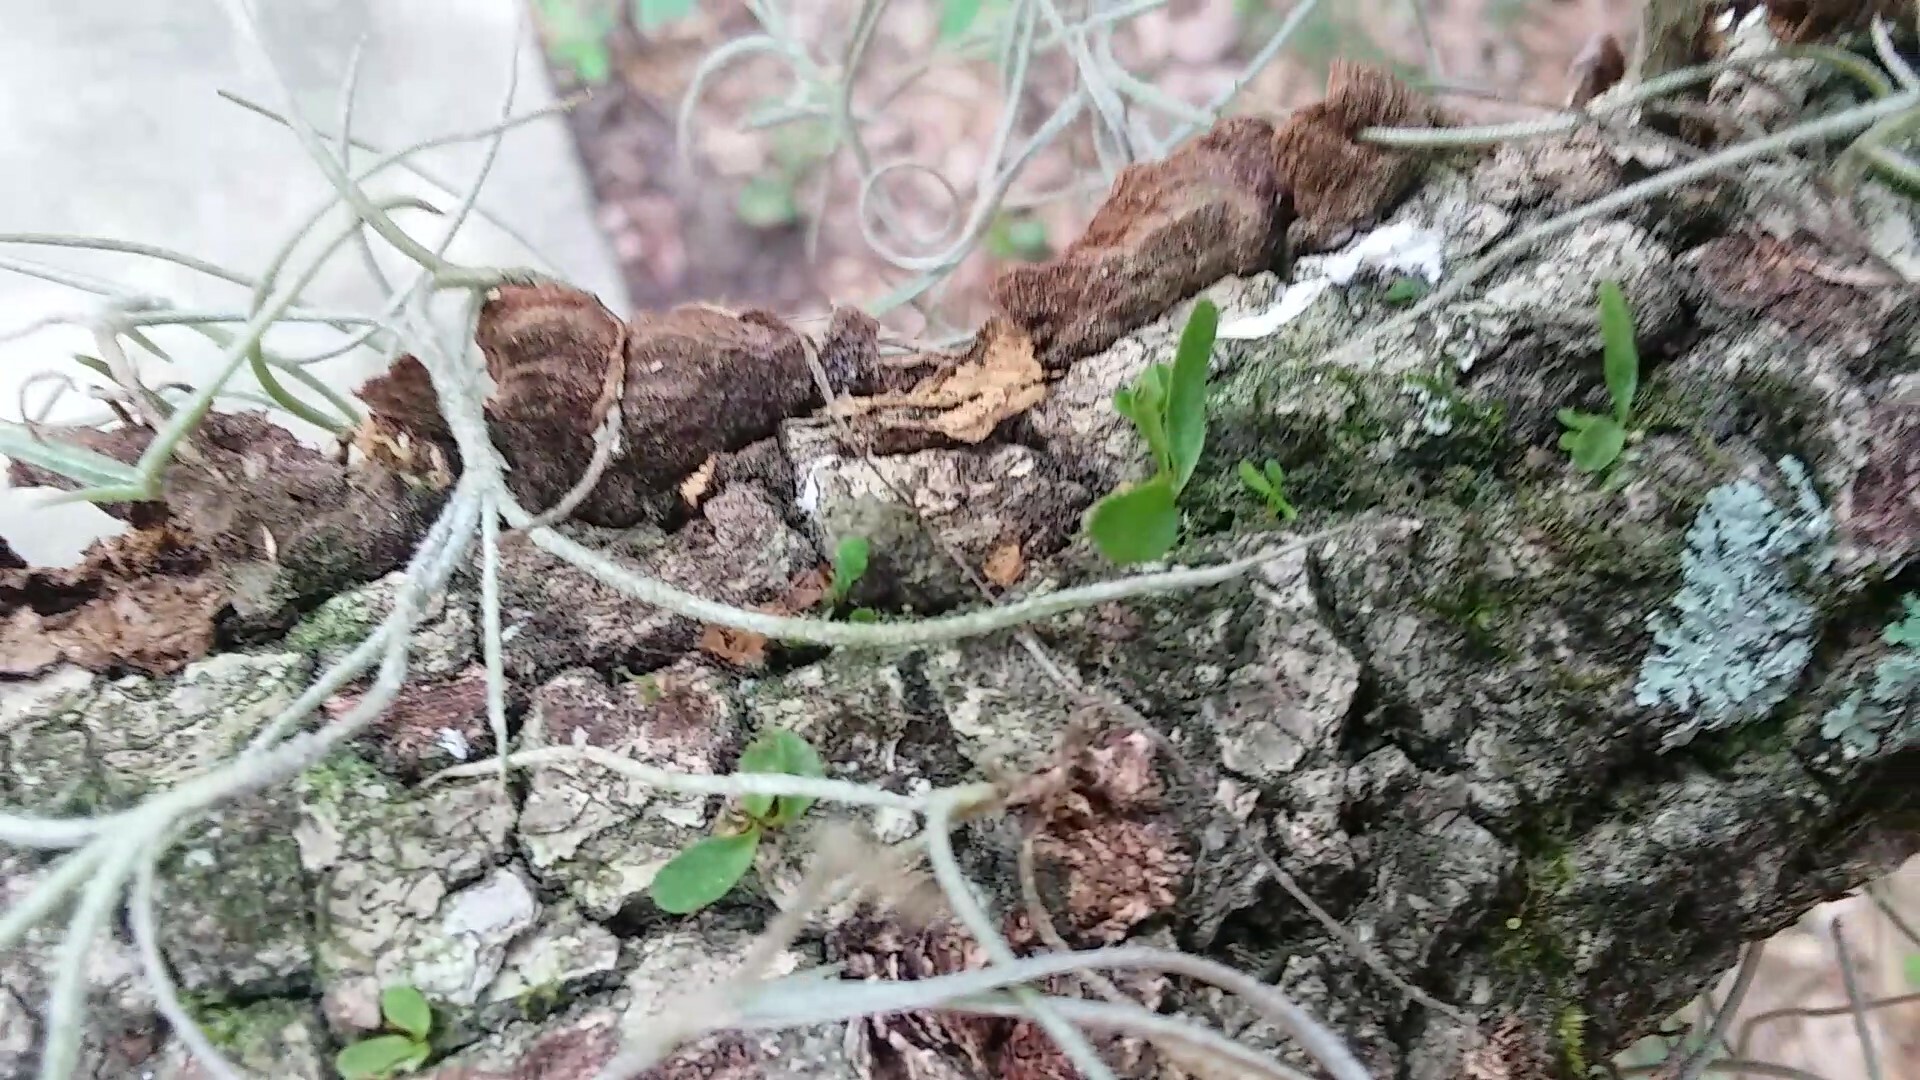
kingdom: Plantae
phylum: Tracheophyta
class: Polypodiopsida
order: Polypodiales
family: Polypodiaceae
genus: Pleopeltis
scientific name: Pleopeltis michauxiana
